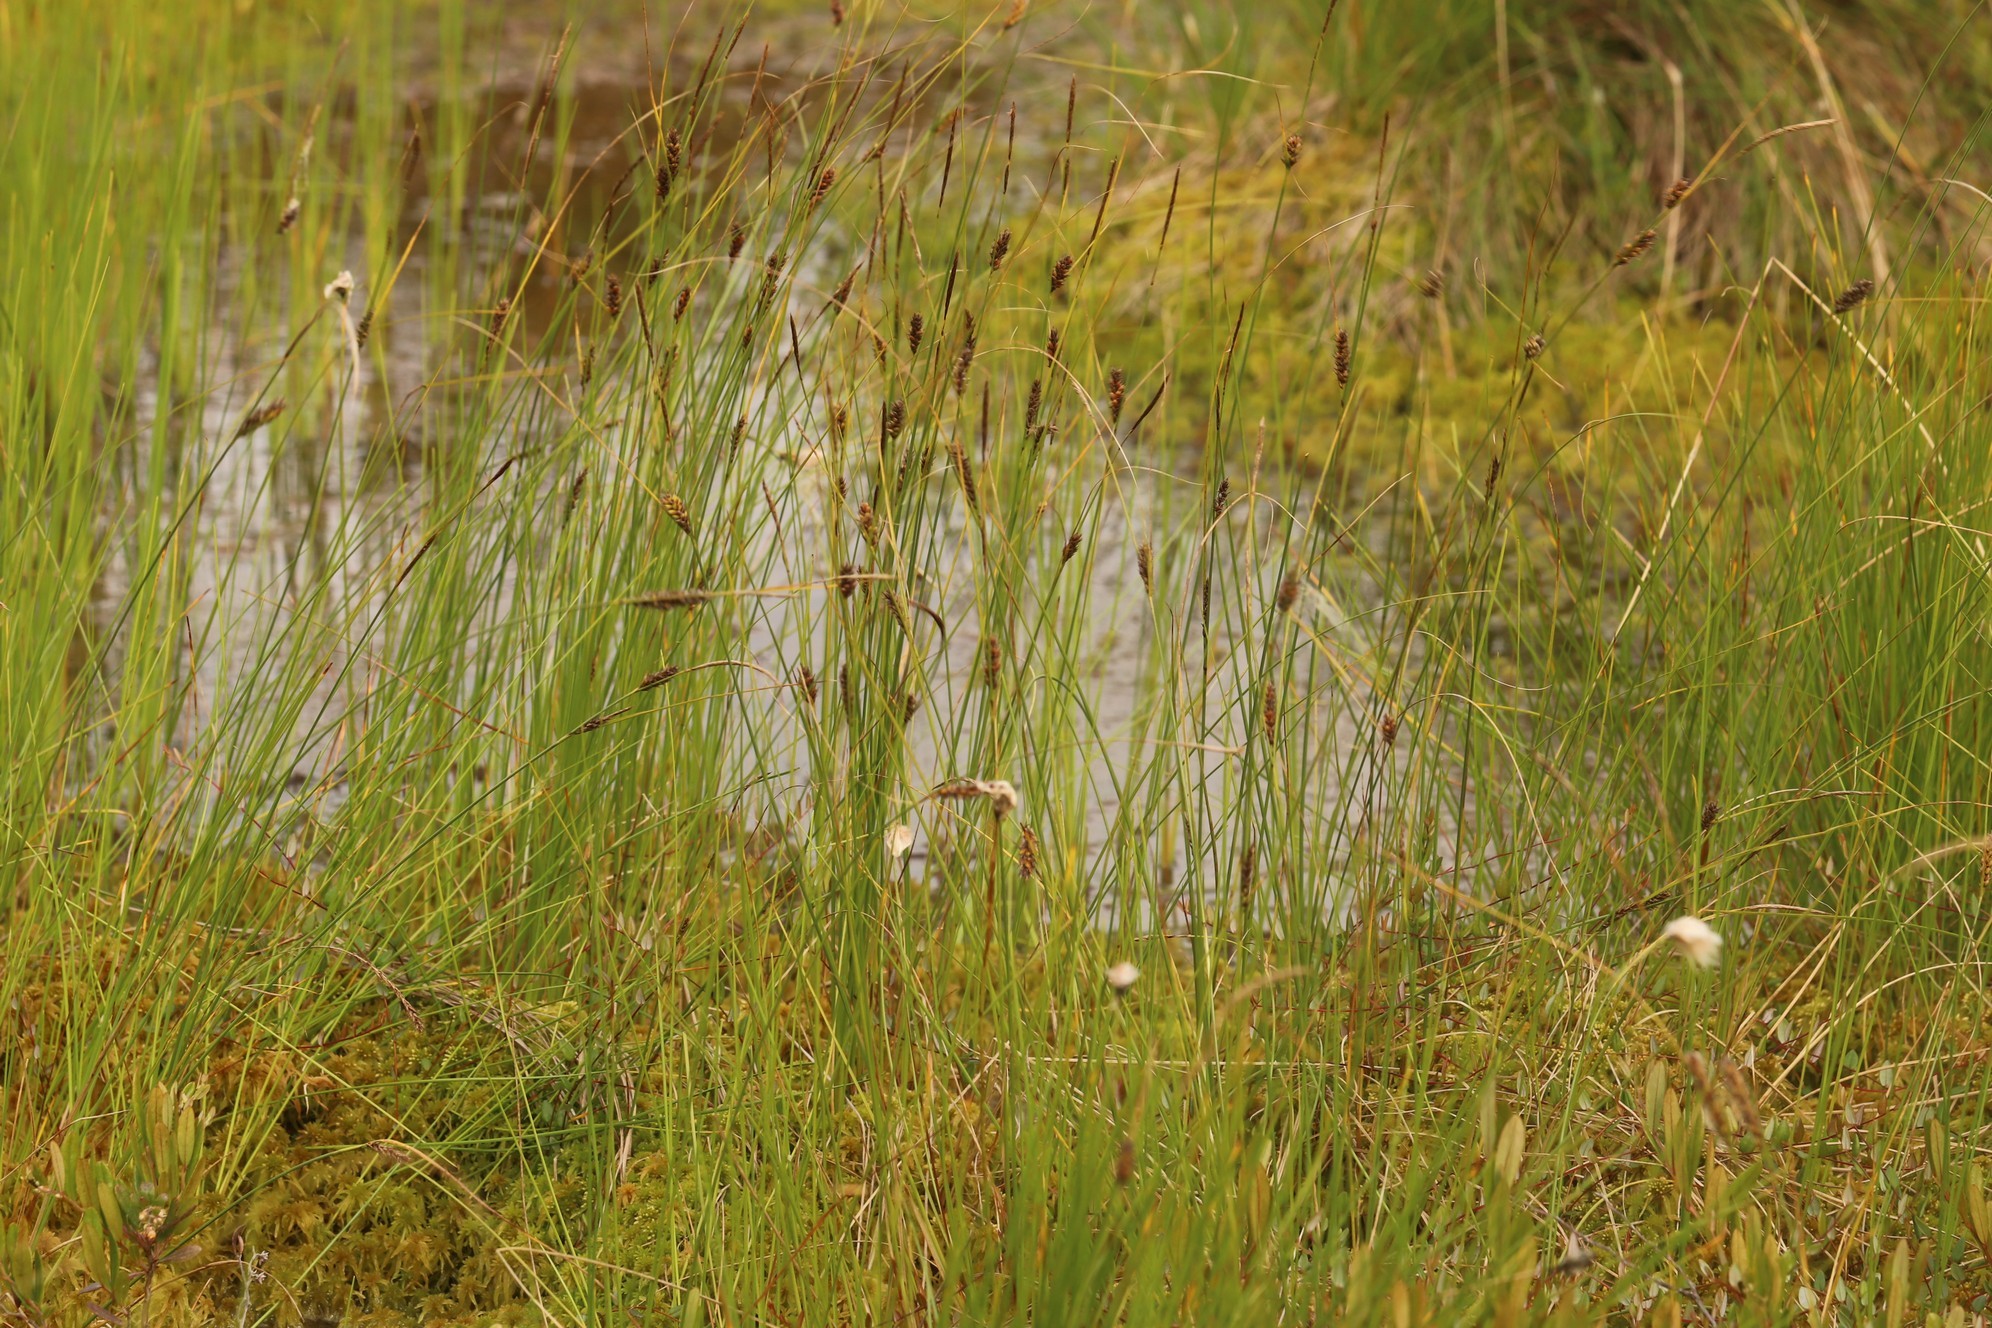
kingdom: Plantae
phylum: Tracheophyta
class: Liliopsida
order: Poales
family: Cyperaceae
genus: Carex
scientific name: Carex lasiocarpa
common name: Slender sedge
